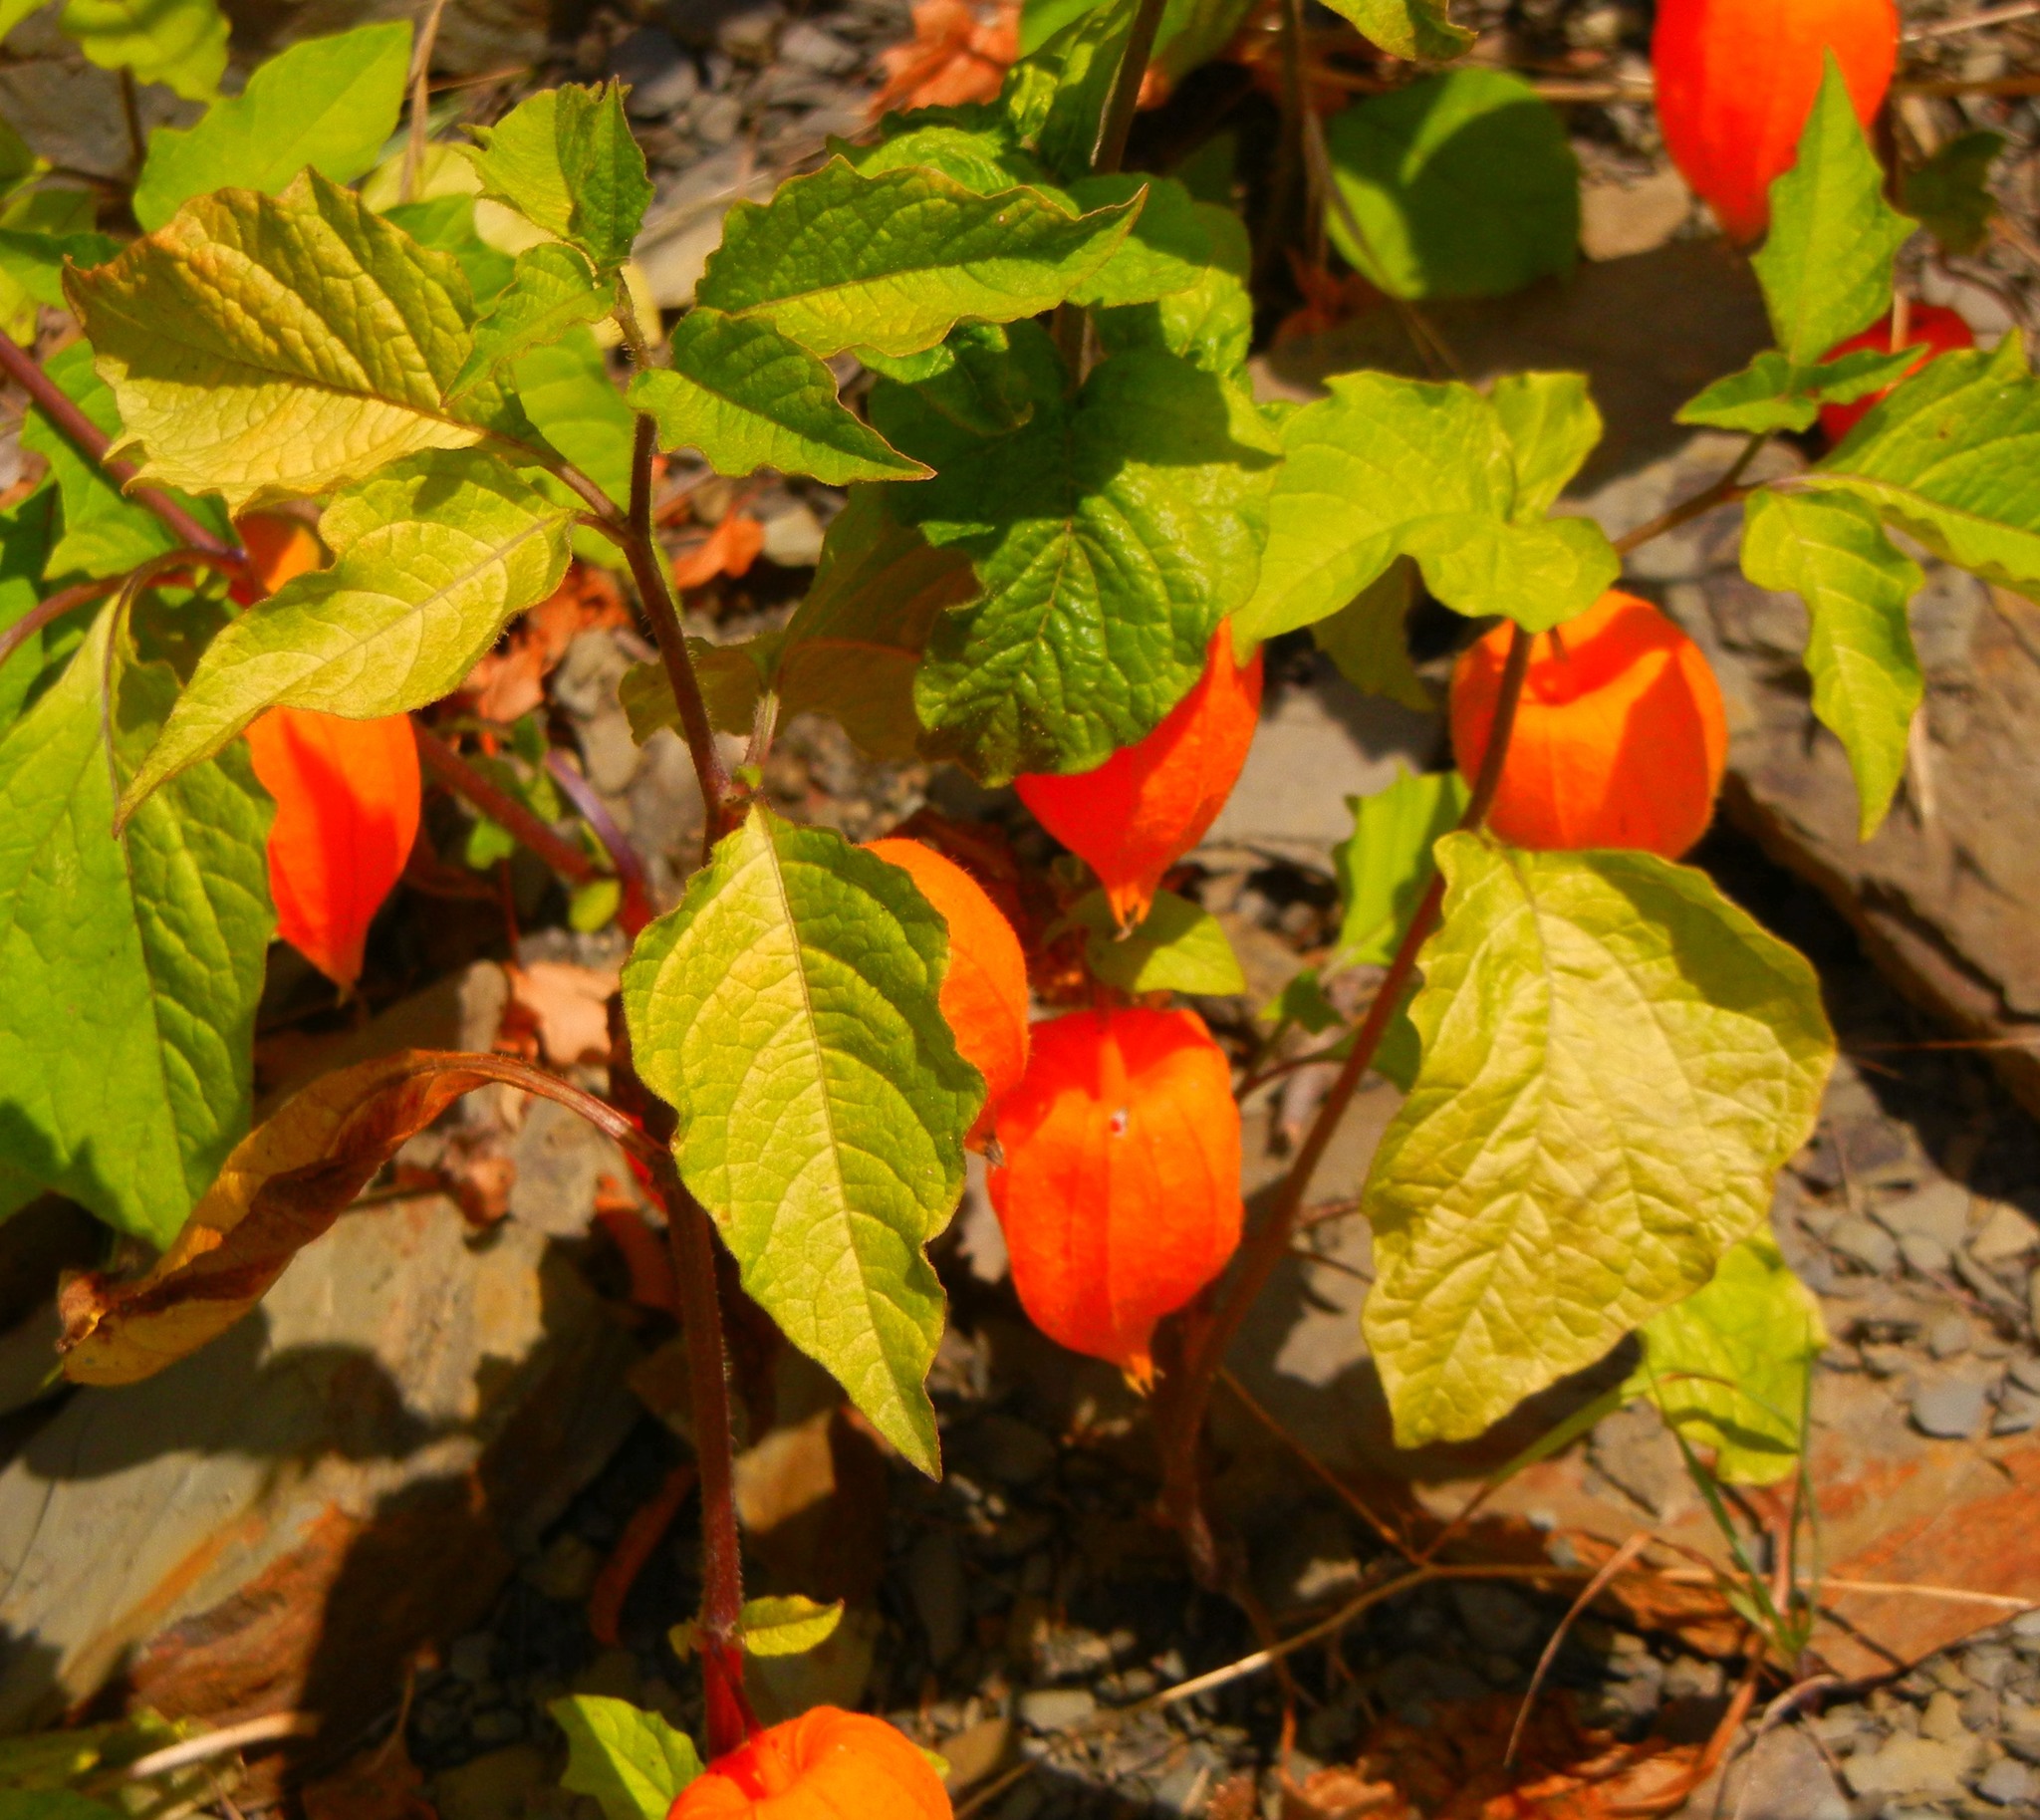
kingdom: Plantae
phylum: Tracheophyta
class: Magnoliopsida
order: Solanales
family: Solanaceae
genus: Alkekengi
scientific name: Alkekengi officinarum
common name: Japanese-lantern
